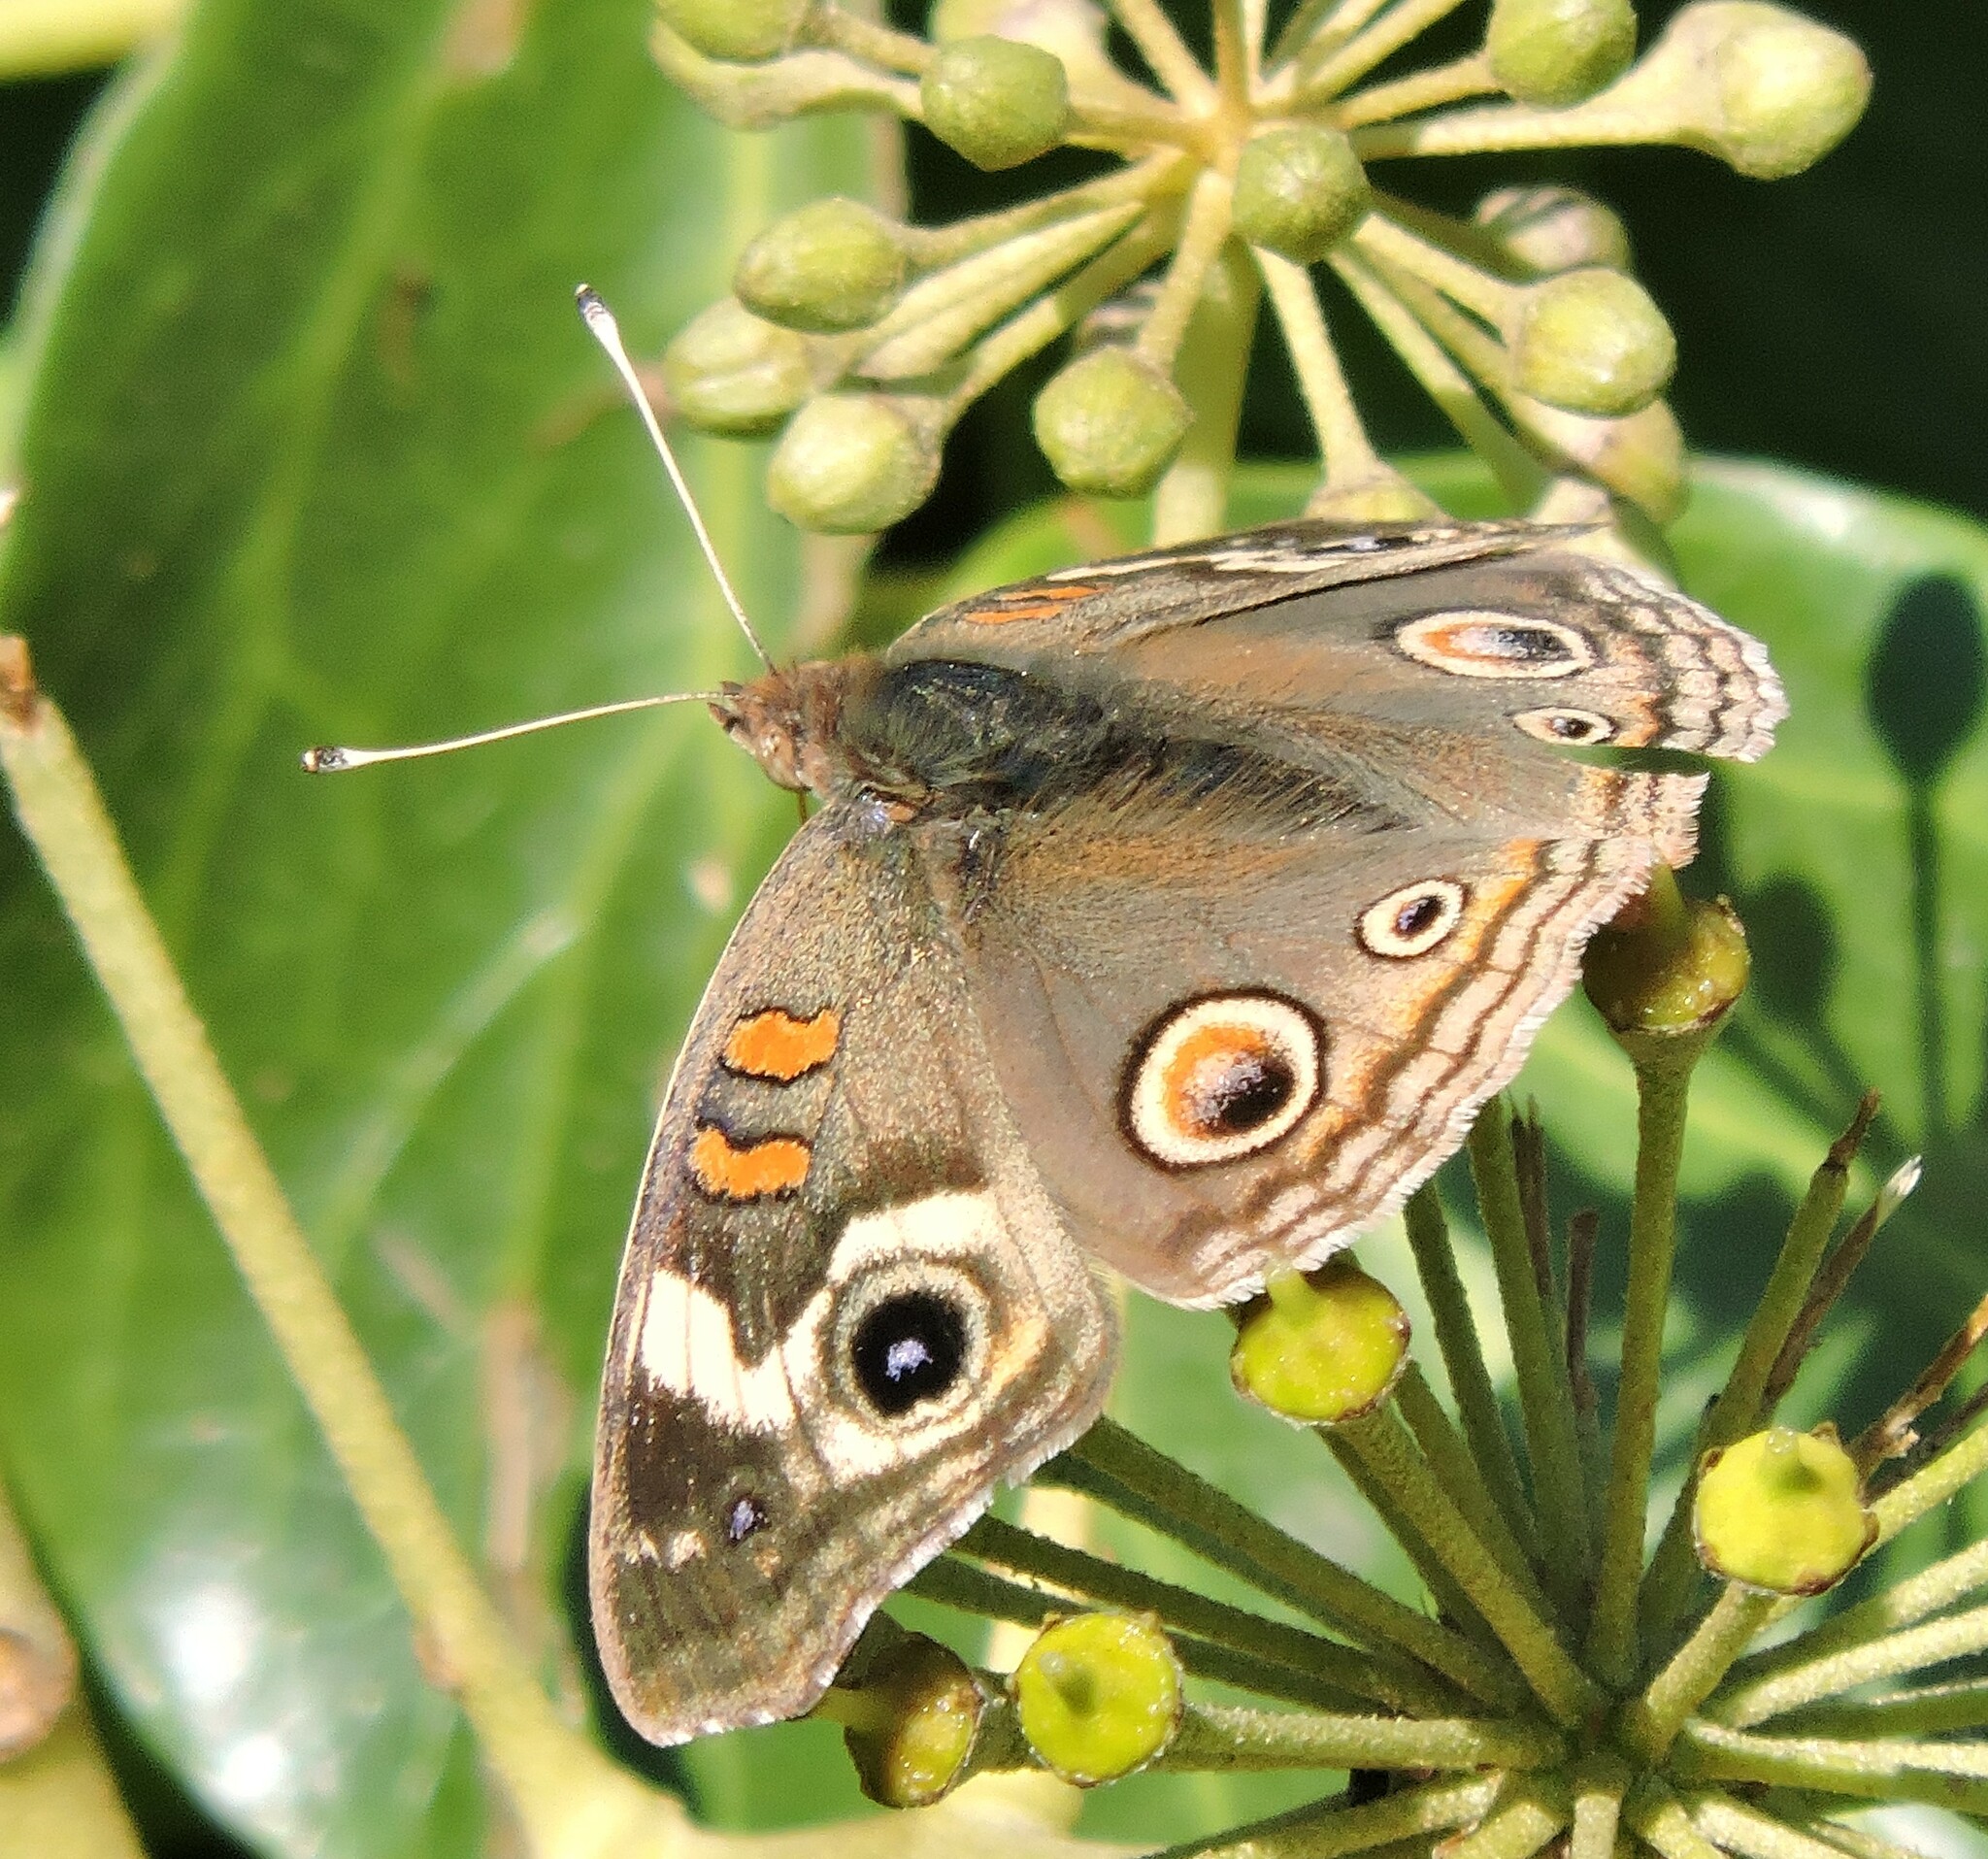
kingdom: Animalia
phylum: Arthropoda
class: Insecta
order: Lepidoptera
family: Nymphalidae
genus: Junonia
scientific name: Junonia grisea
